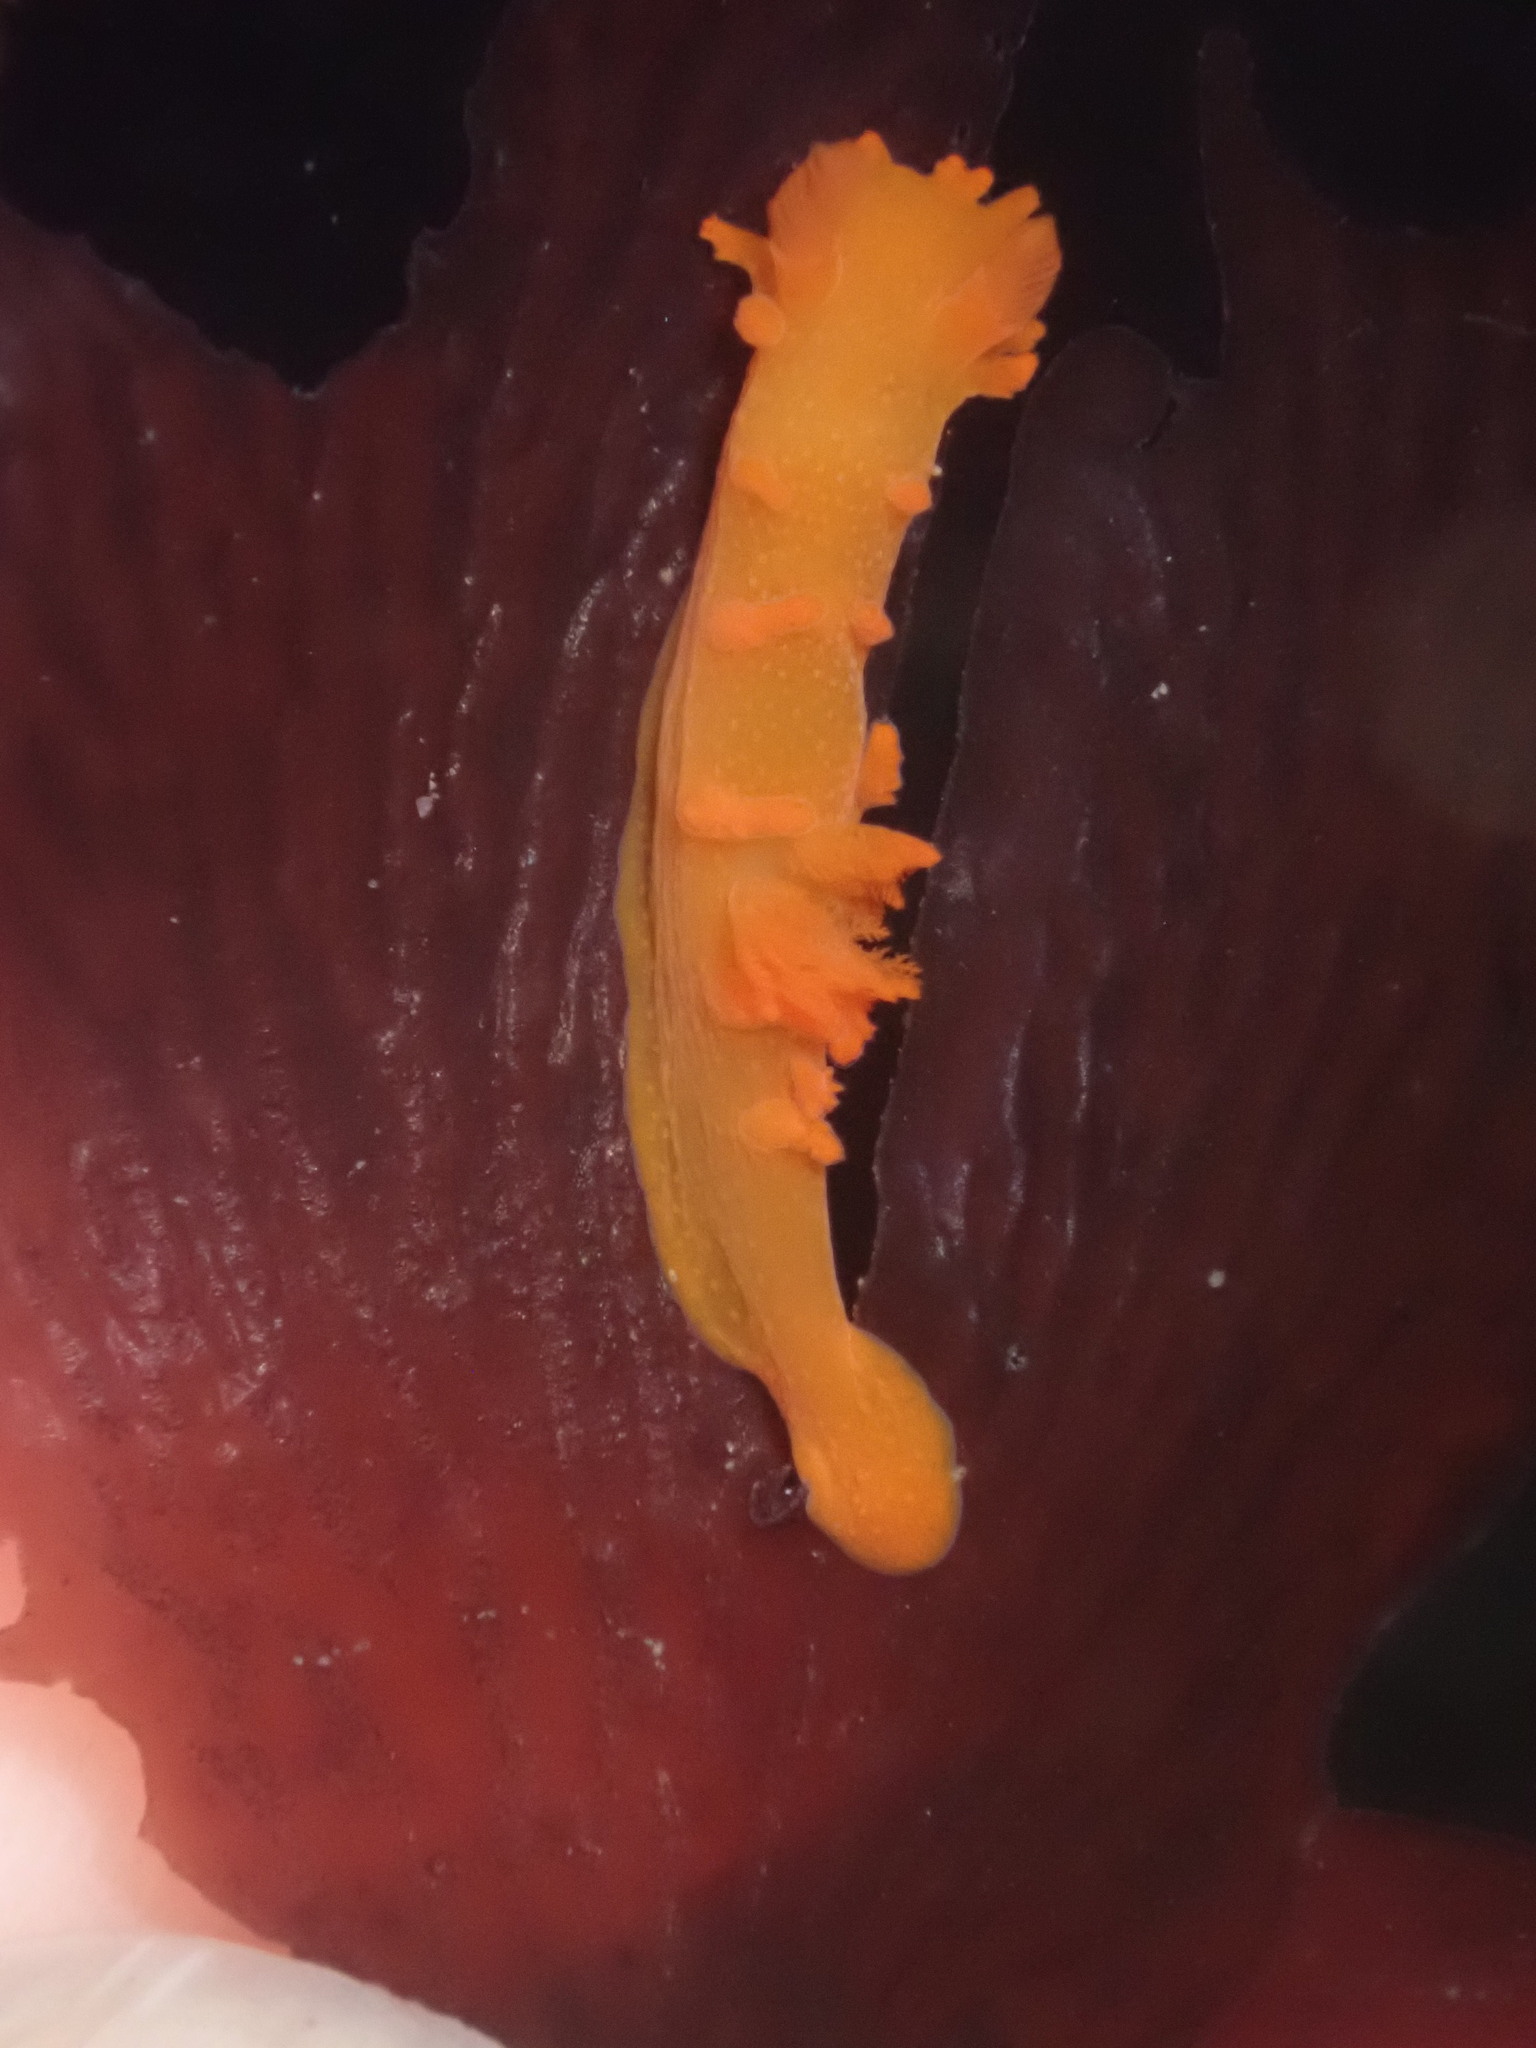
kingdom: Animalia
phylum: Mollusca
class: Gastropoda
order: Nudibranchia
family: Polyceridae
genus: Triopha
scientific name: Triopha maculata
